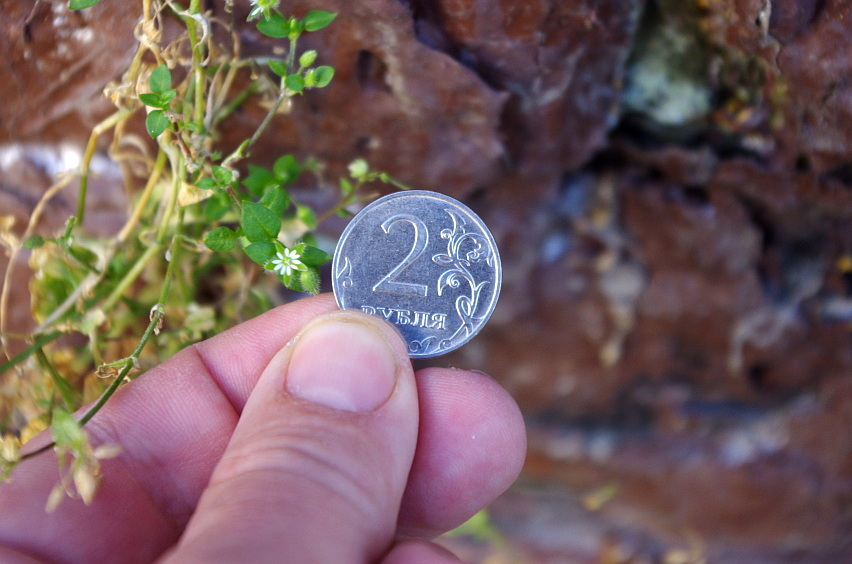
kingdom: Plantae
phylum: Tracheophyta
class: Magnoliopsida
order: Caryophyllales
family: Caryophyllaceae
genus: Stellaria
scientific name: Stellaria media
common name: Common chickweed
